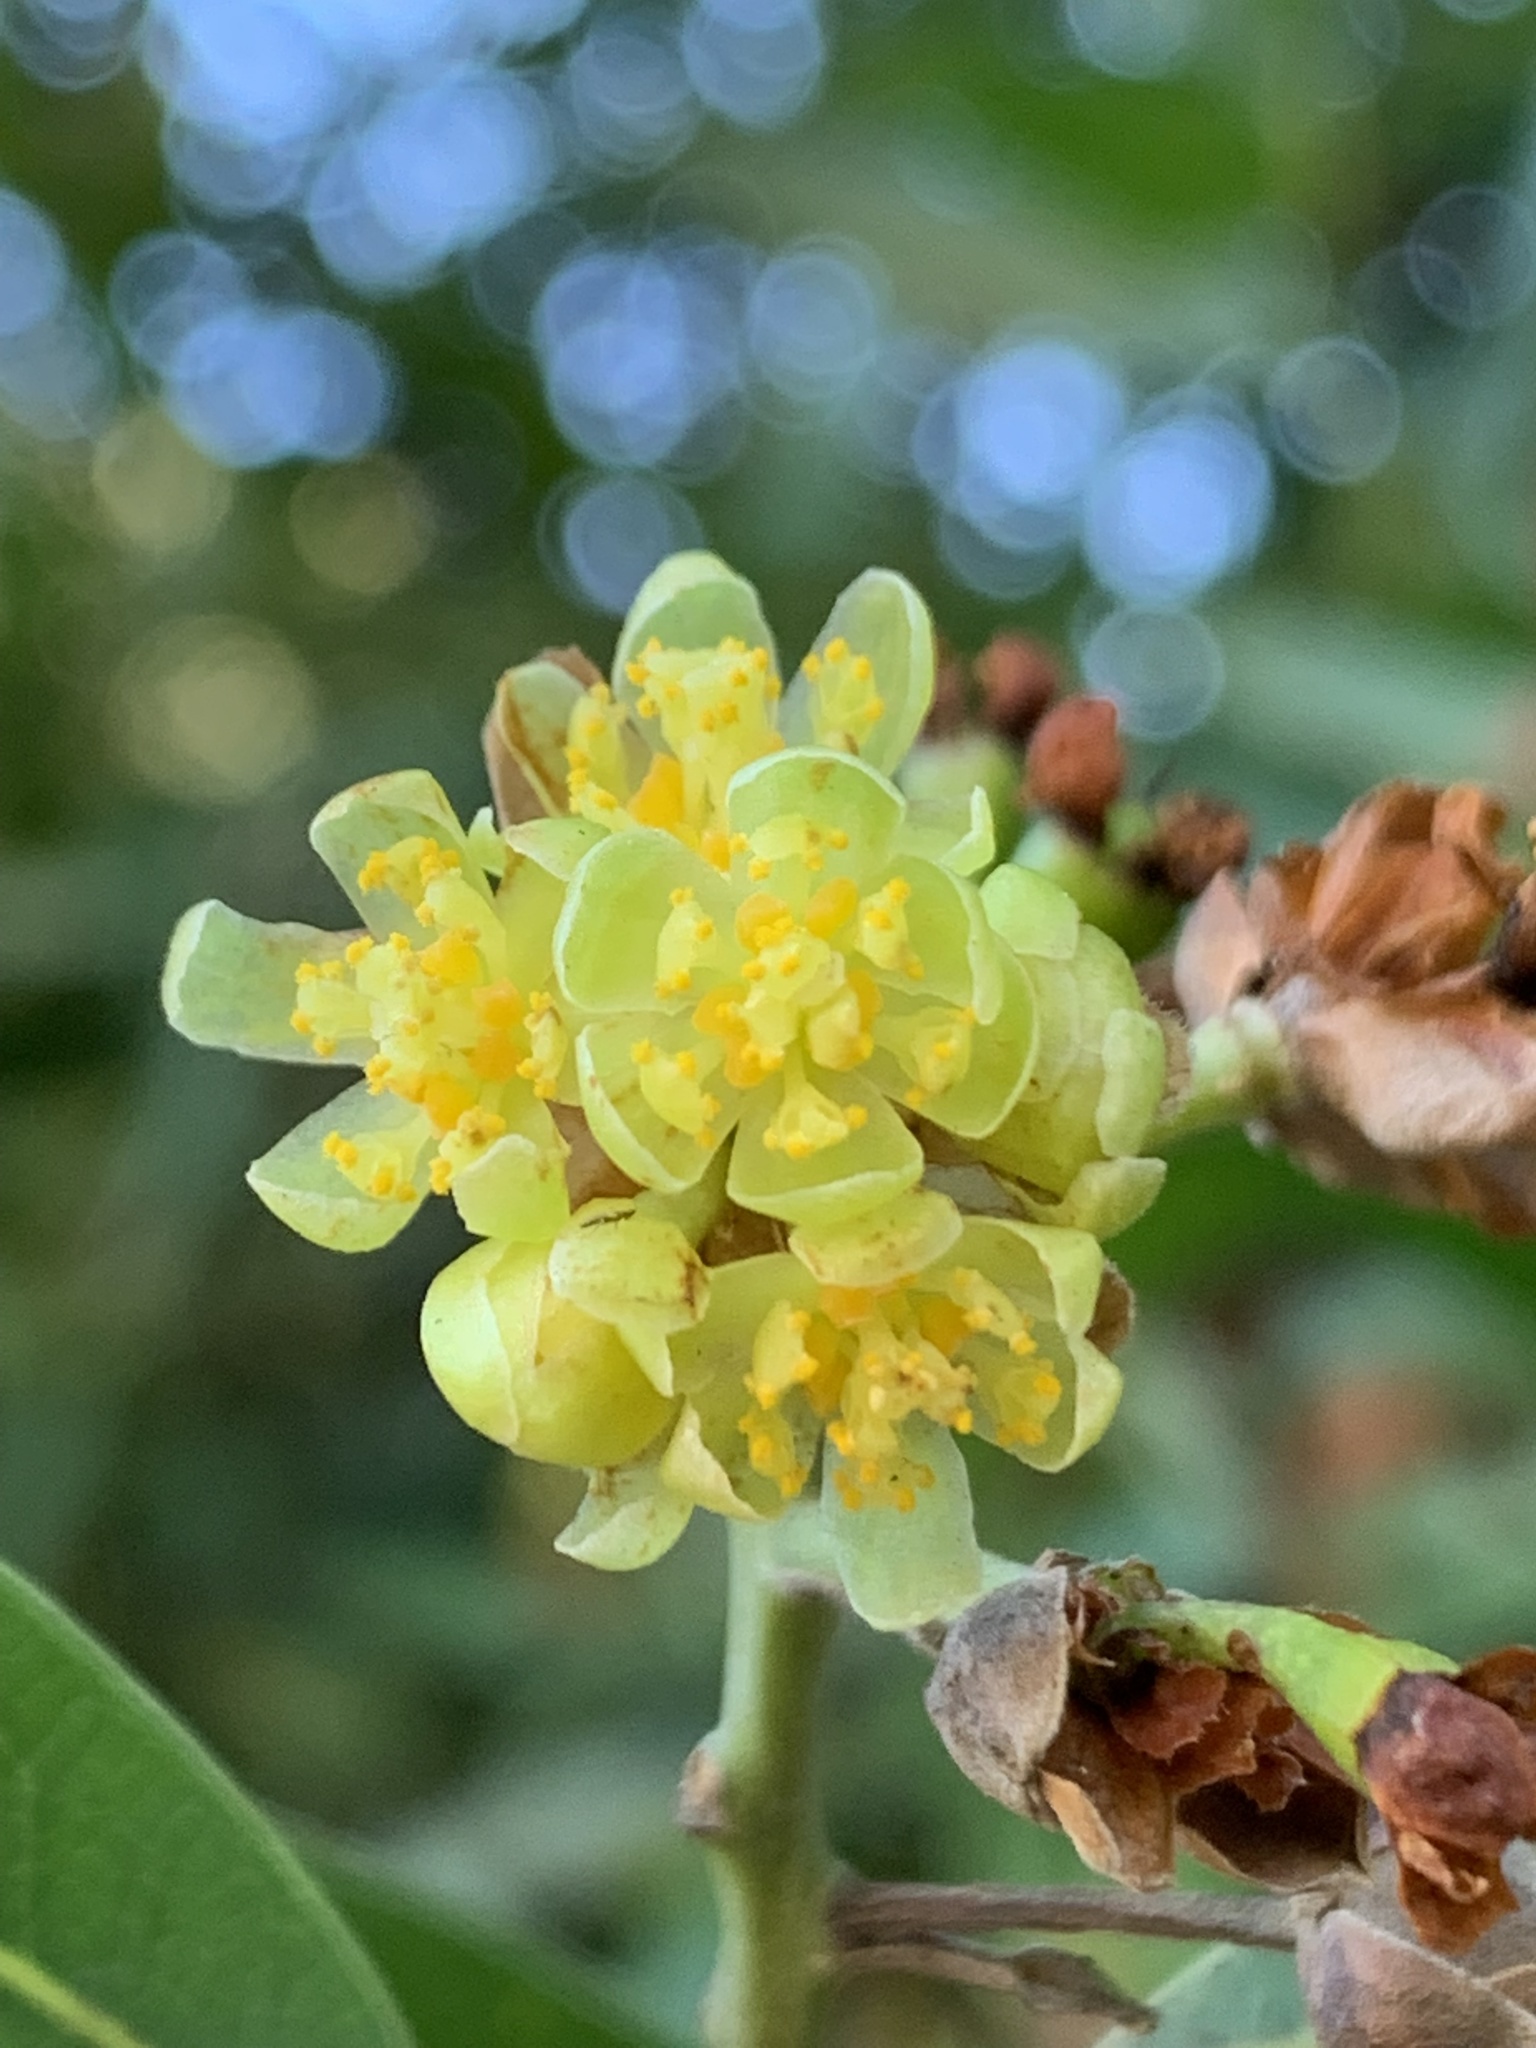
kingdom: Plantae
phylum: Tracheophyta
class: Magnoliopsida
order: Laurales
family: Lauraceae
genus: Umbellularia
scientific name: Umbellularia californica
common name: California bay
